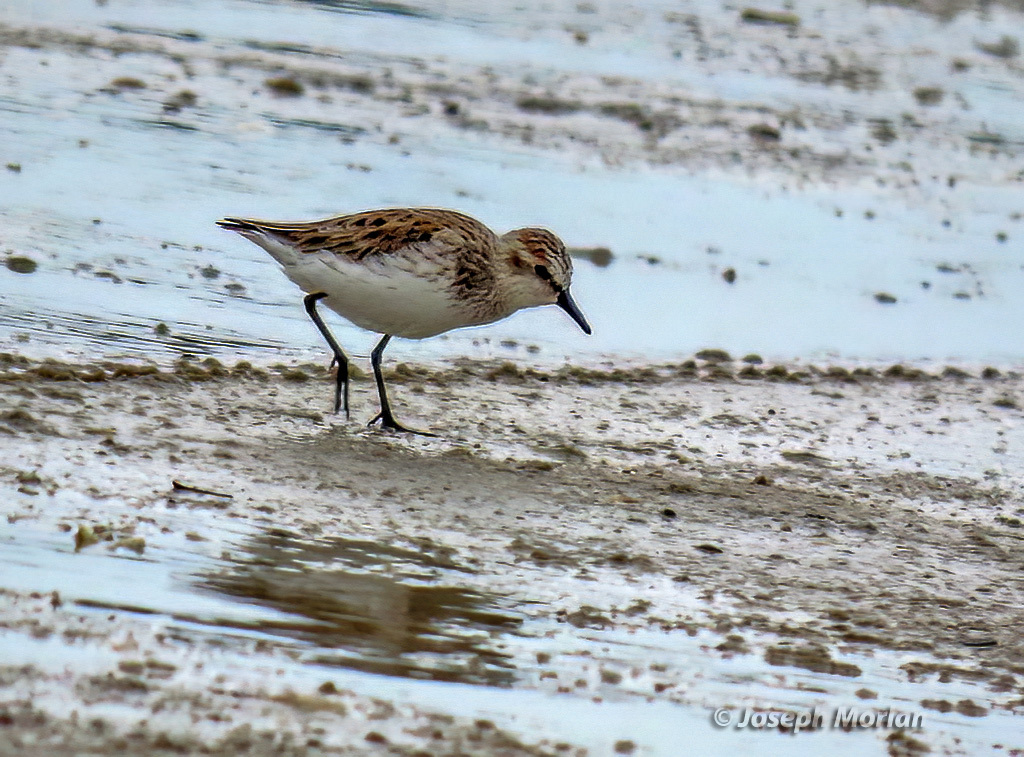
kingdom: Animalia
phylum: Chordata
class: Aves
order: Charadriiformes
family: Scolopacidae
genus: Calidris
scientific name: Calidris pusilla
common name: Semipalmated sandpiper
